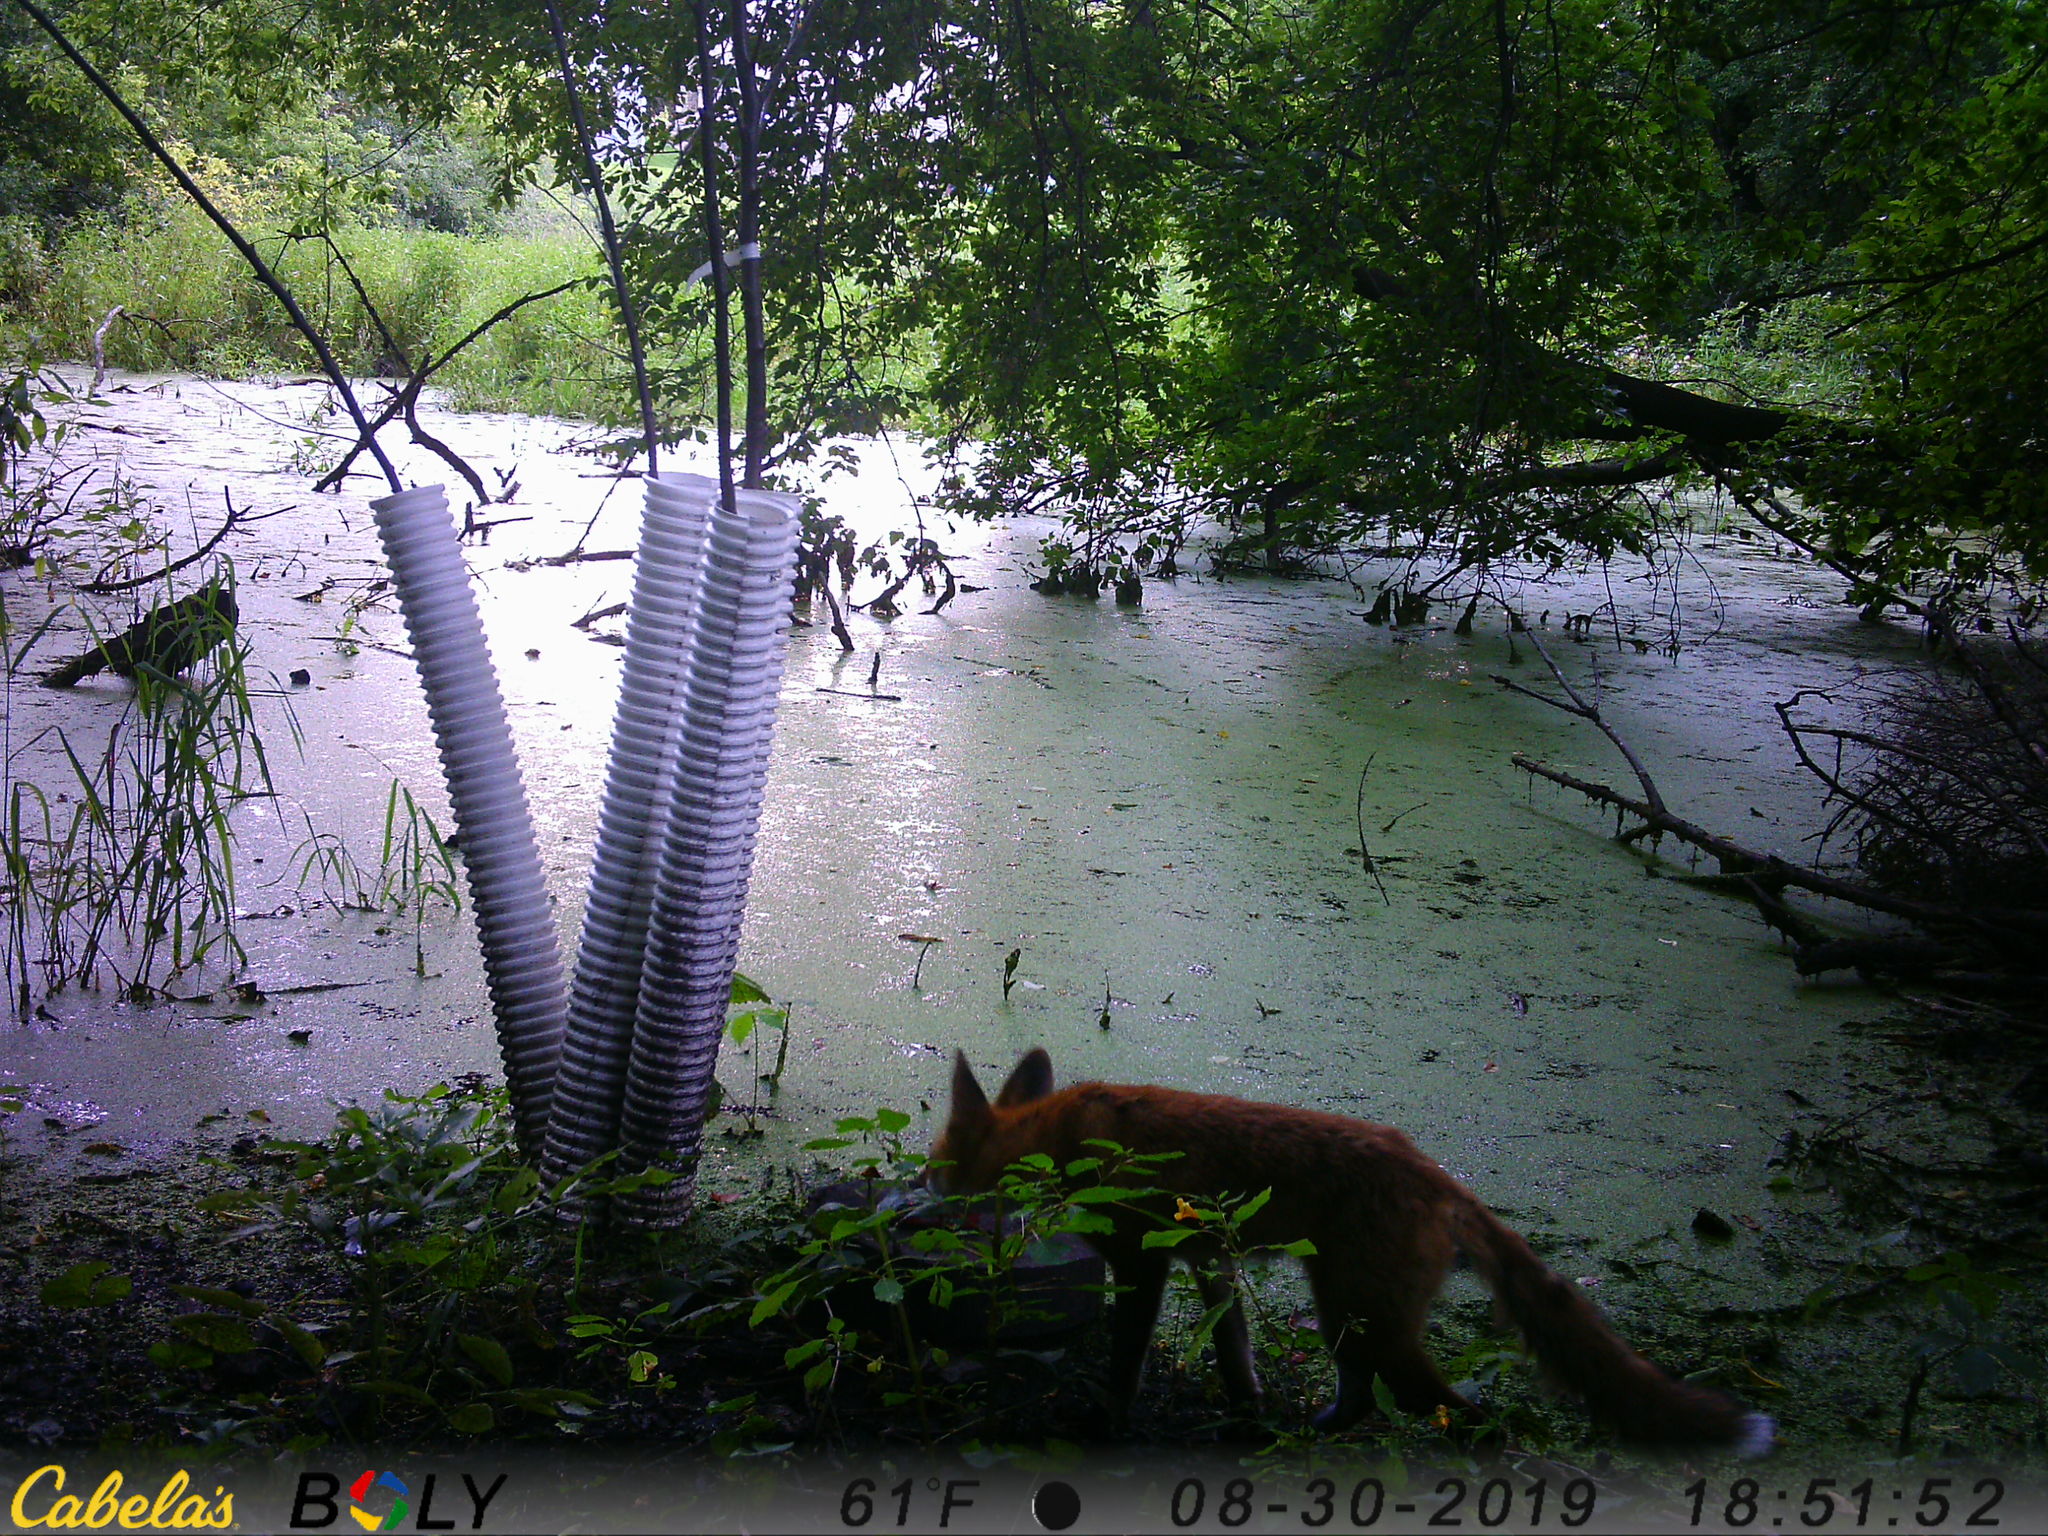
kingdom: Animalia
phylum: Chordata
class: Mammalia
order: Carnivora
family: Canidae
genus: Vulpes
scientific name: Vulpes vulpes
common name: Red fox
